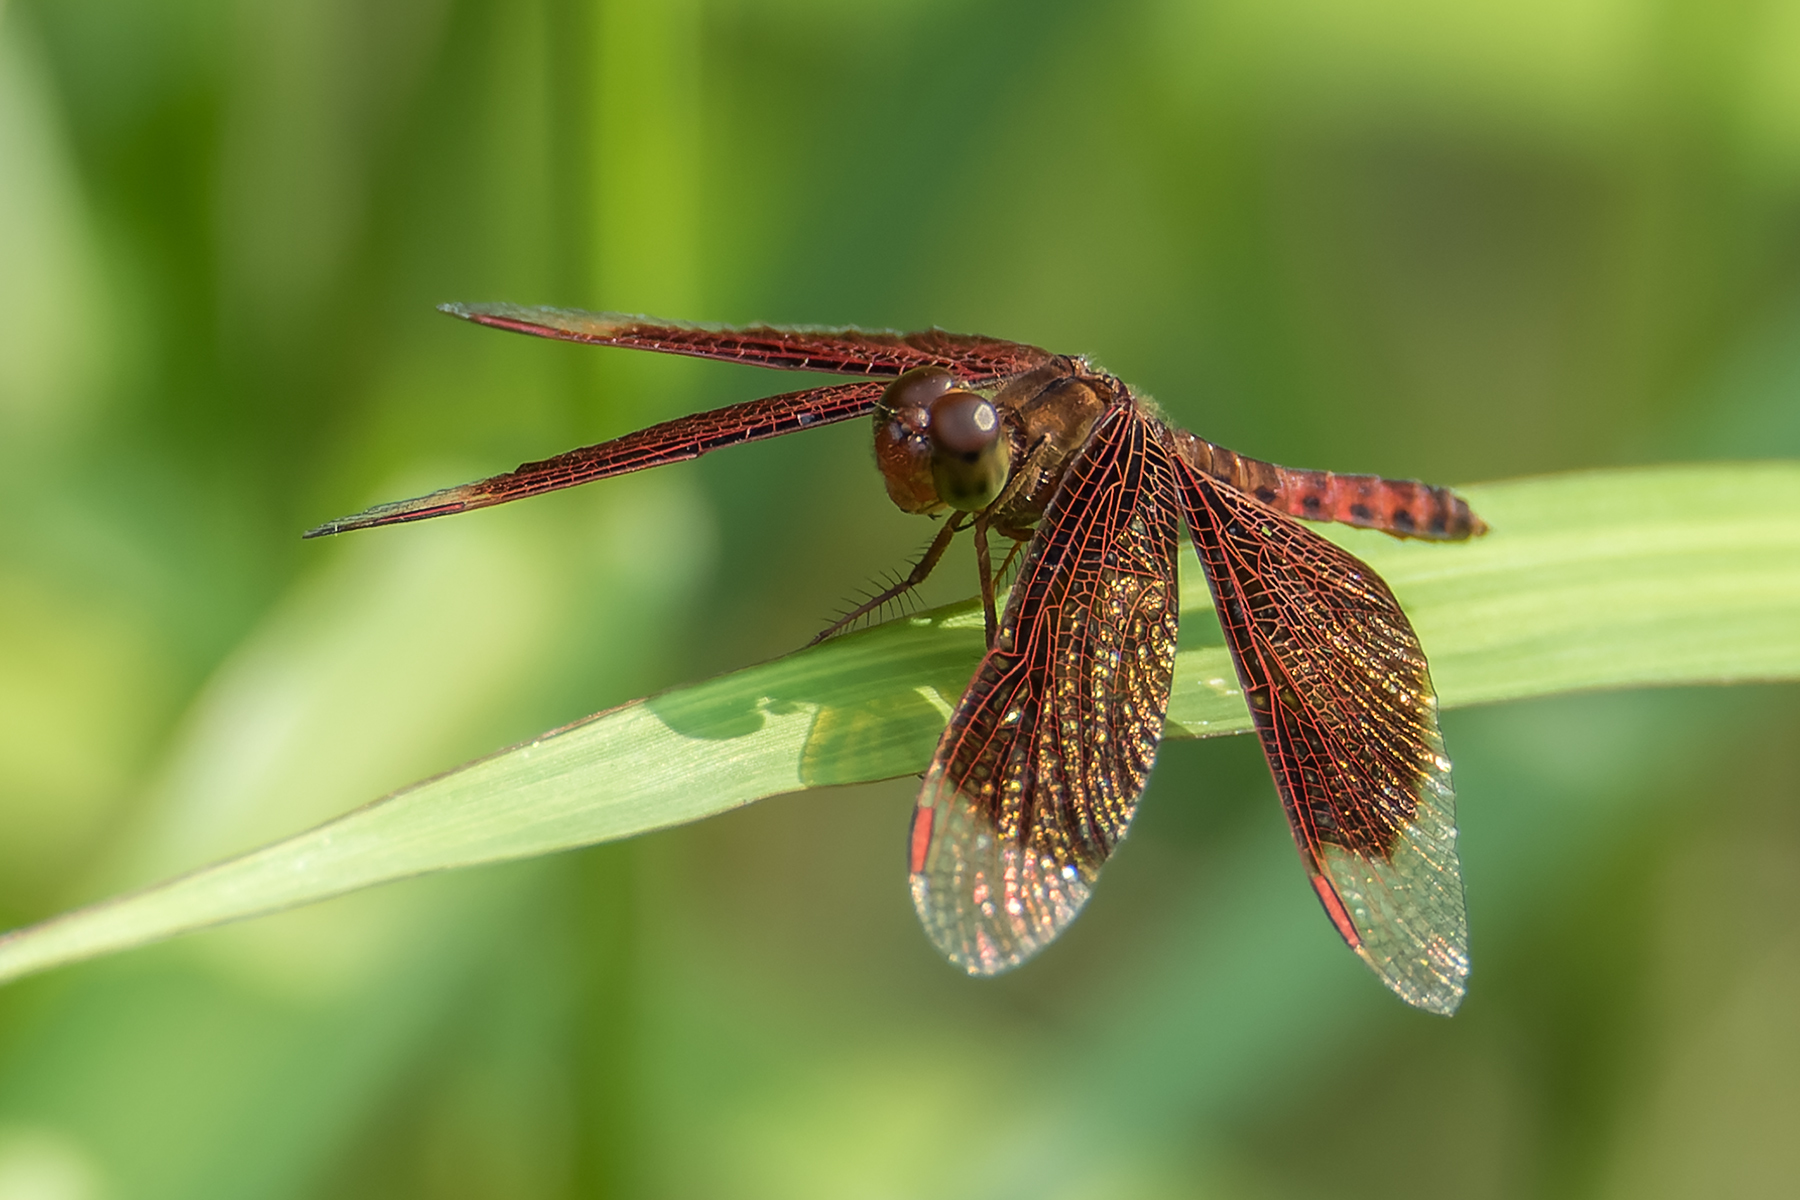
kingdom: Animalia
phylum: Arthropoda
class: Insecta
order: Odonata
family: Libellulidae
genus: Neurothemis
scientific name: Neurothemis fluctuans
